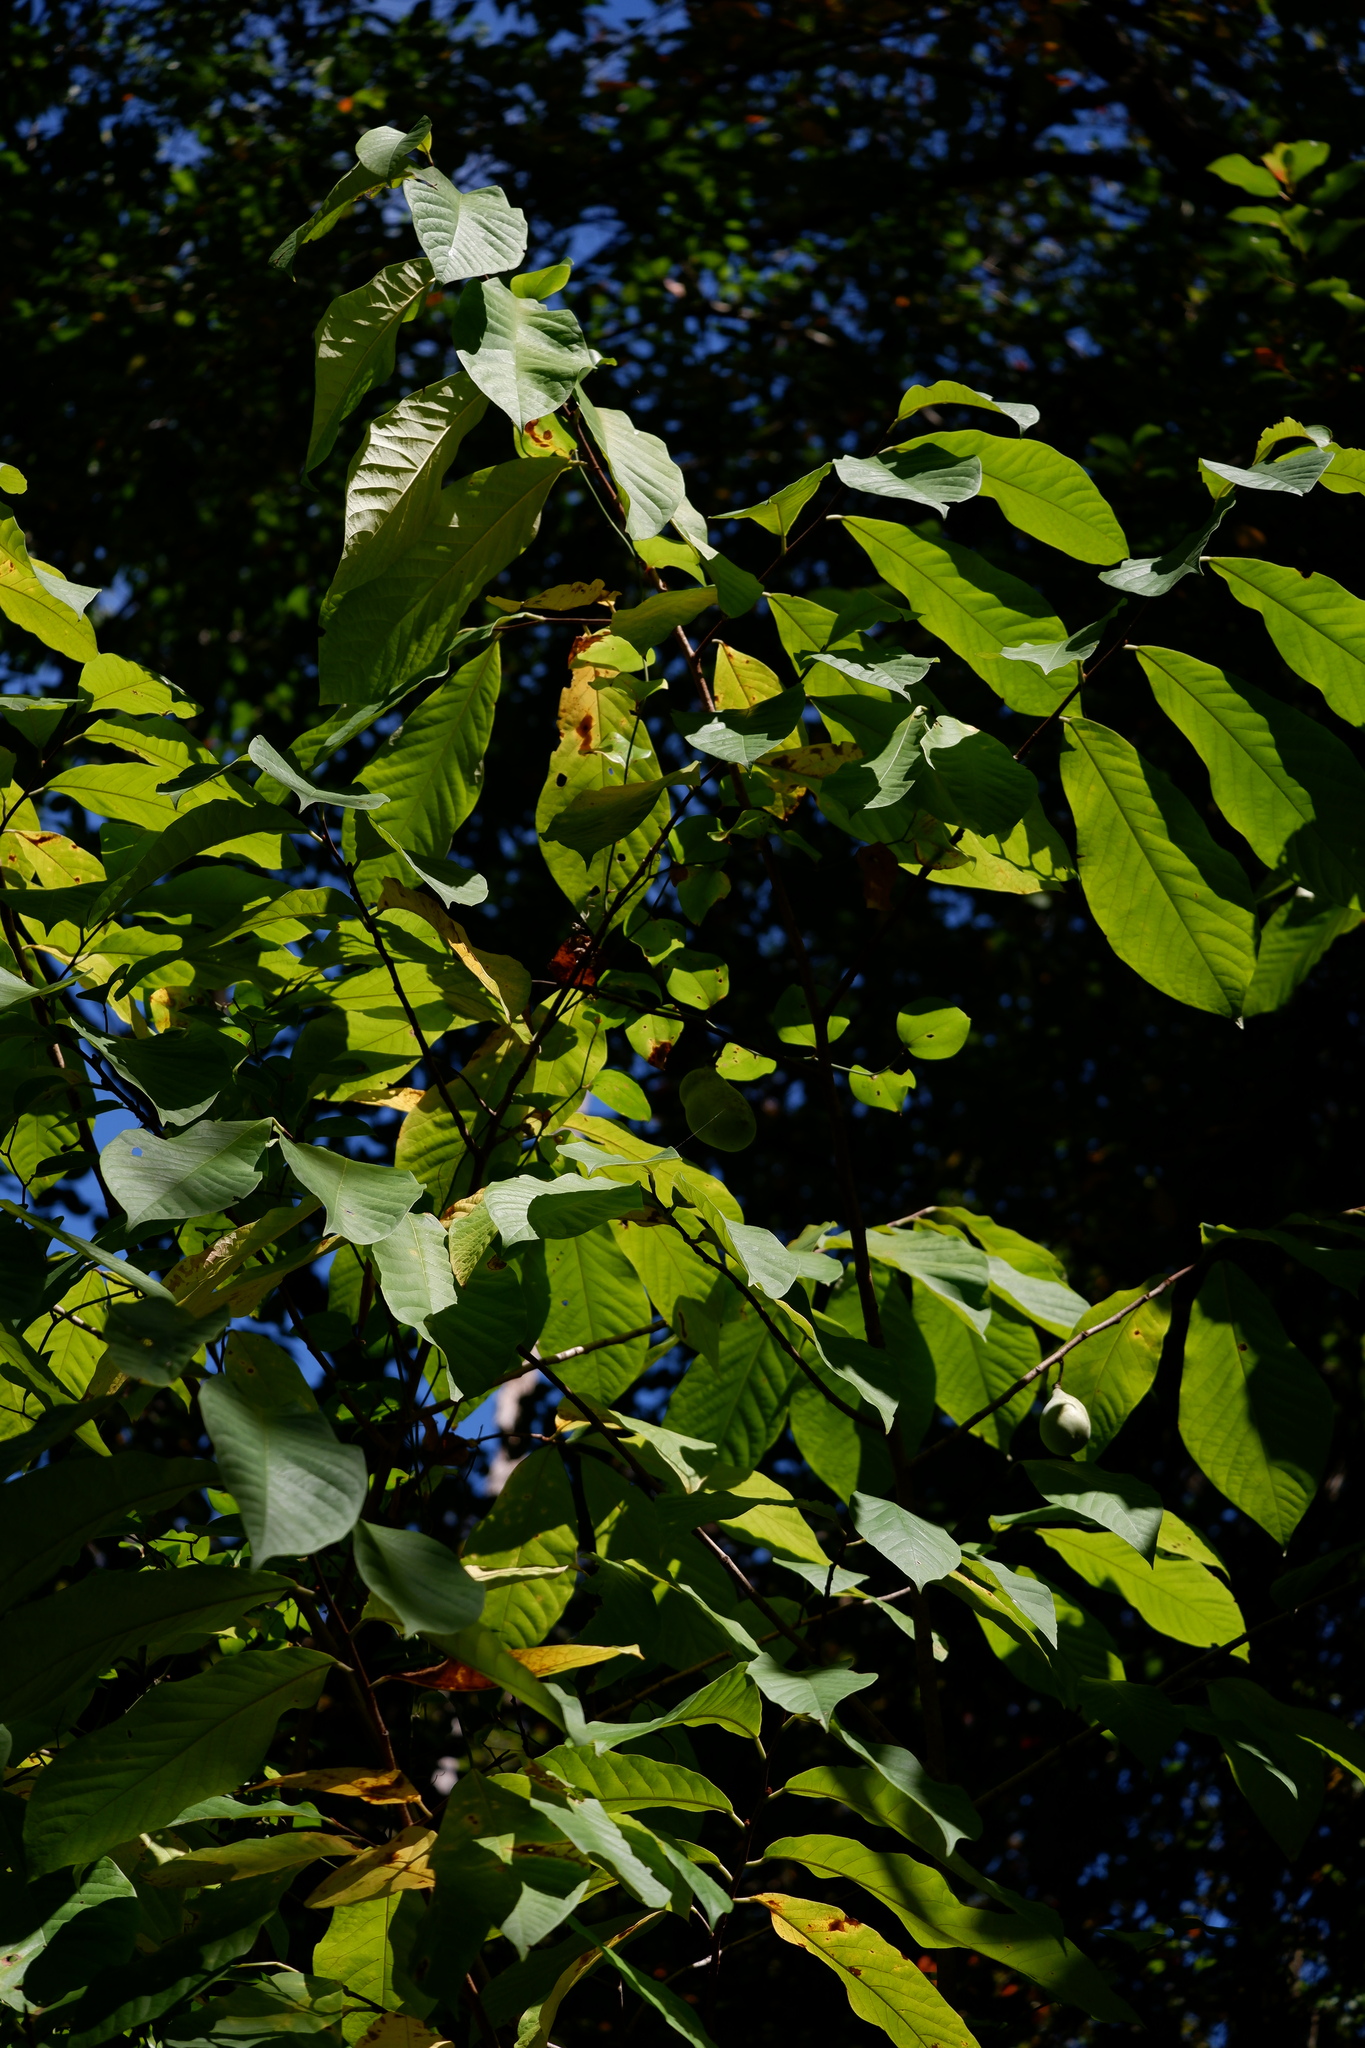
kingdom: Plantae
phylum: Tracheophyta
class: Magnoliopsida
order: Magnoliales
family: Annonaceae
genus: Asimina
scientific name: Asimina triloba
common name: Dog-banana
